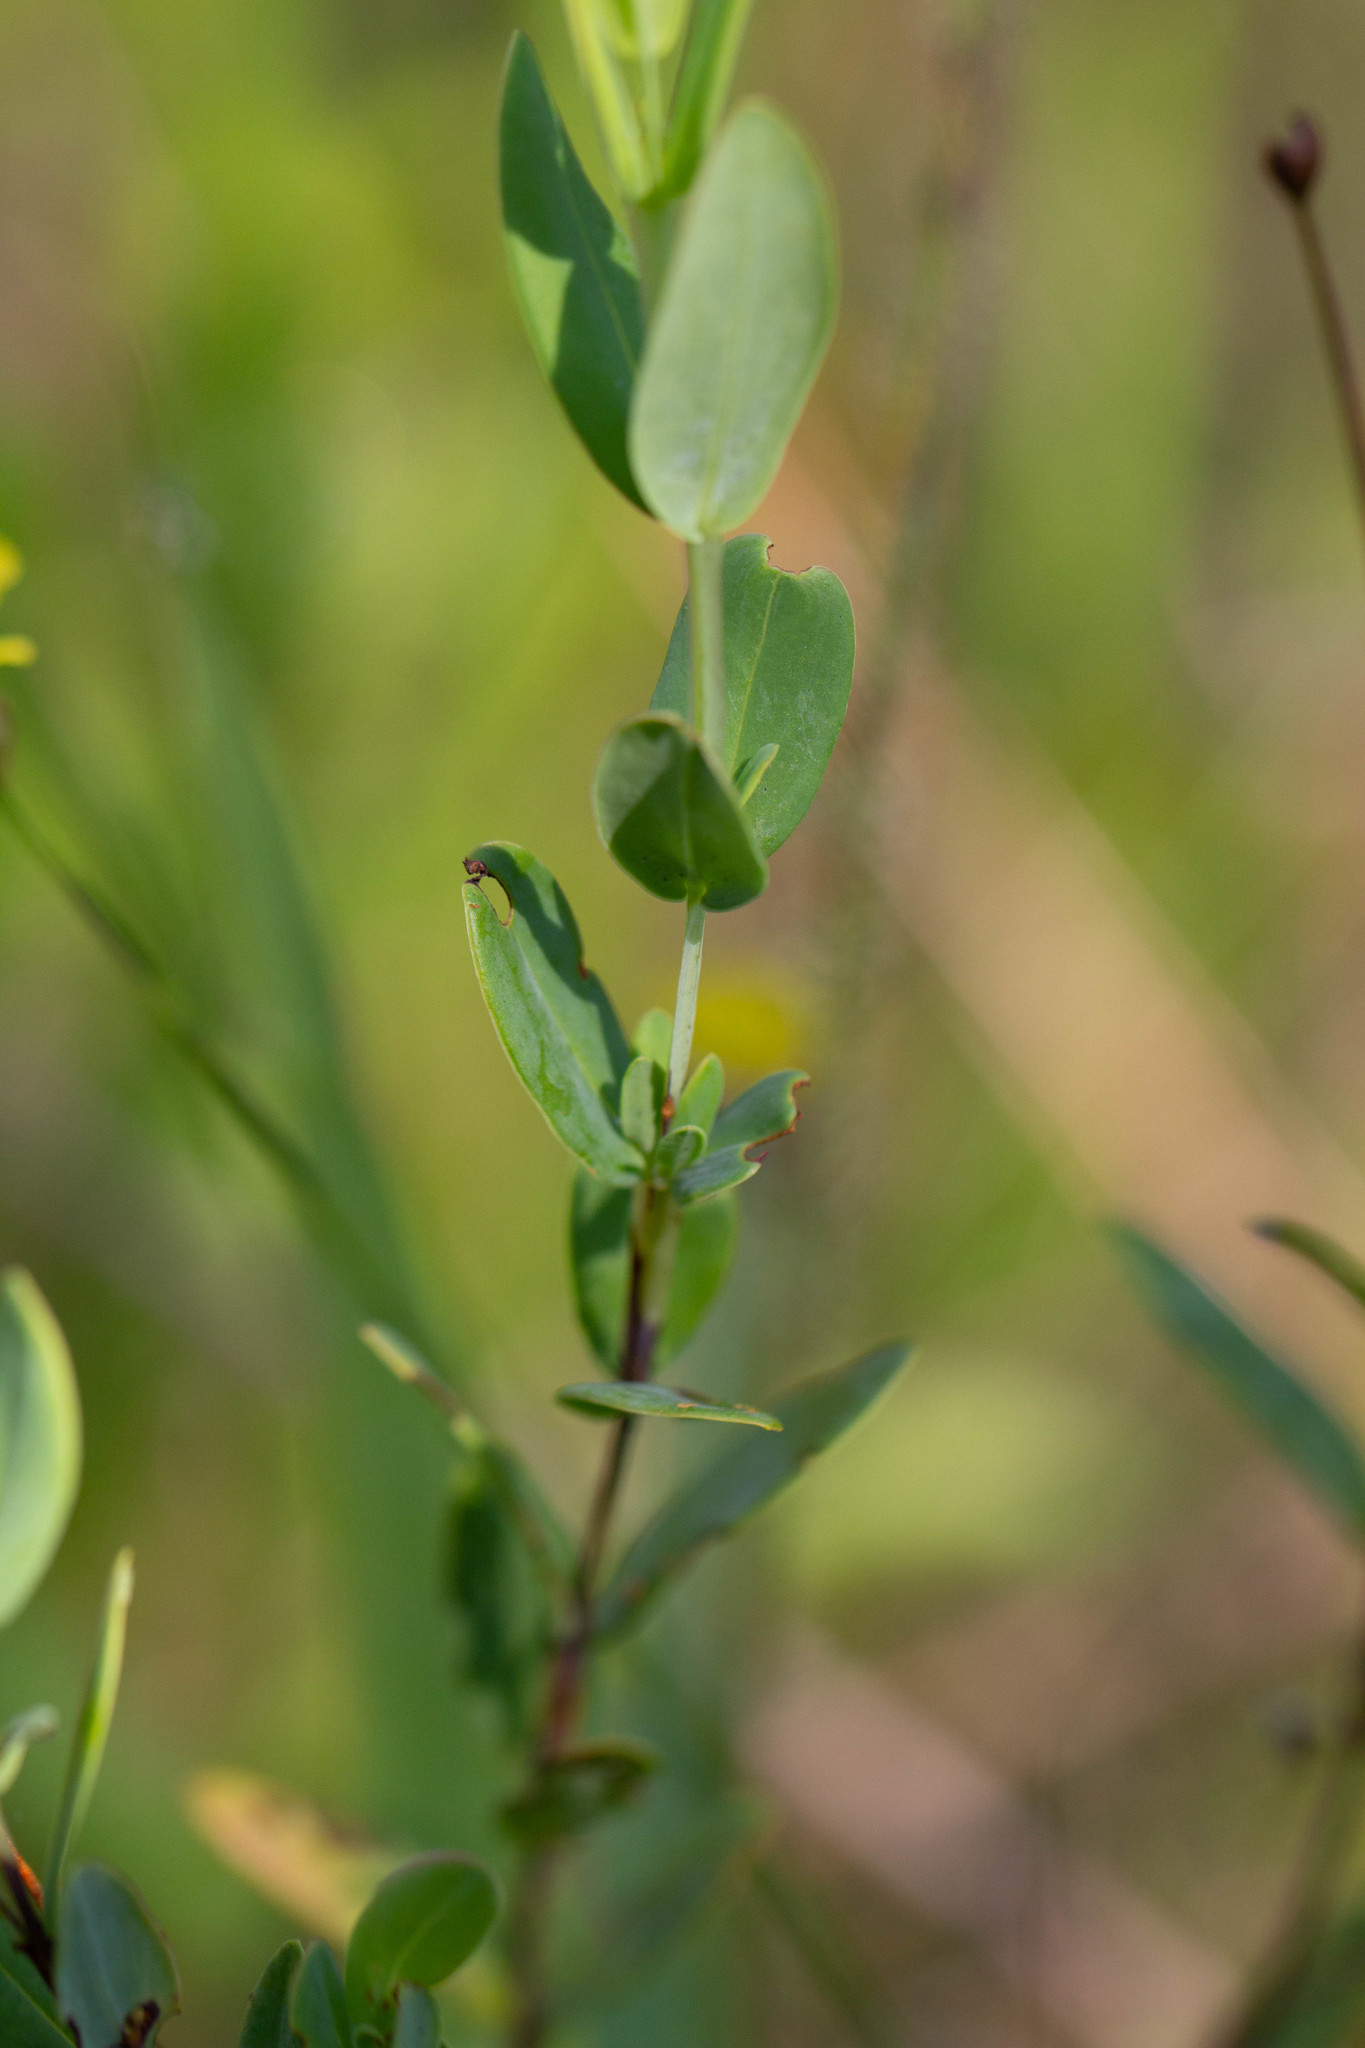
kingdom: Plantae
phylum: Tracheophyta
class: Magnoliopsida
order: Malpighiales
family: Hypericaceae
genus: Hypericum
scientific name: Hypericum crux-andreae
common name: St.-peter's-wort
